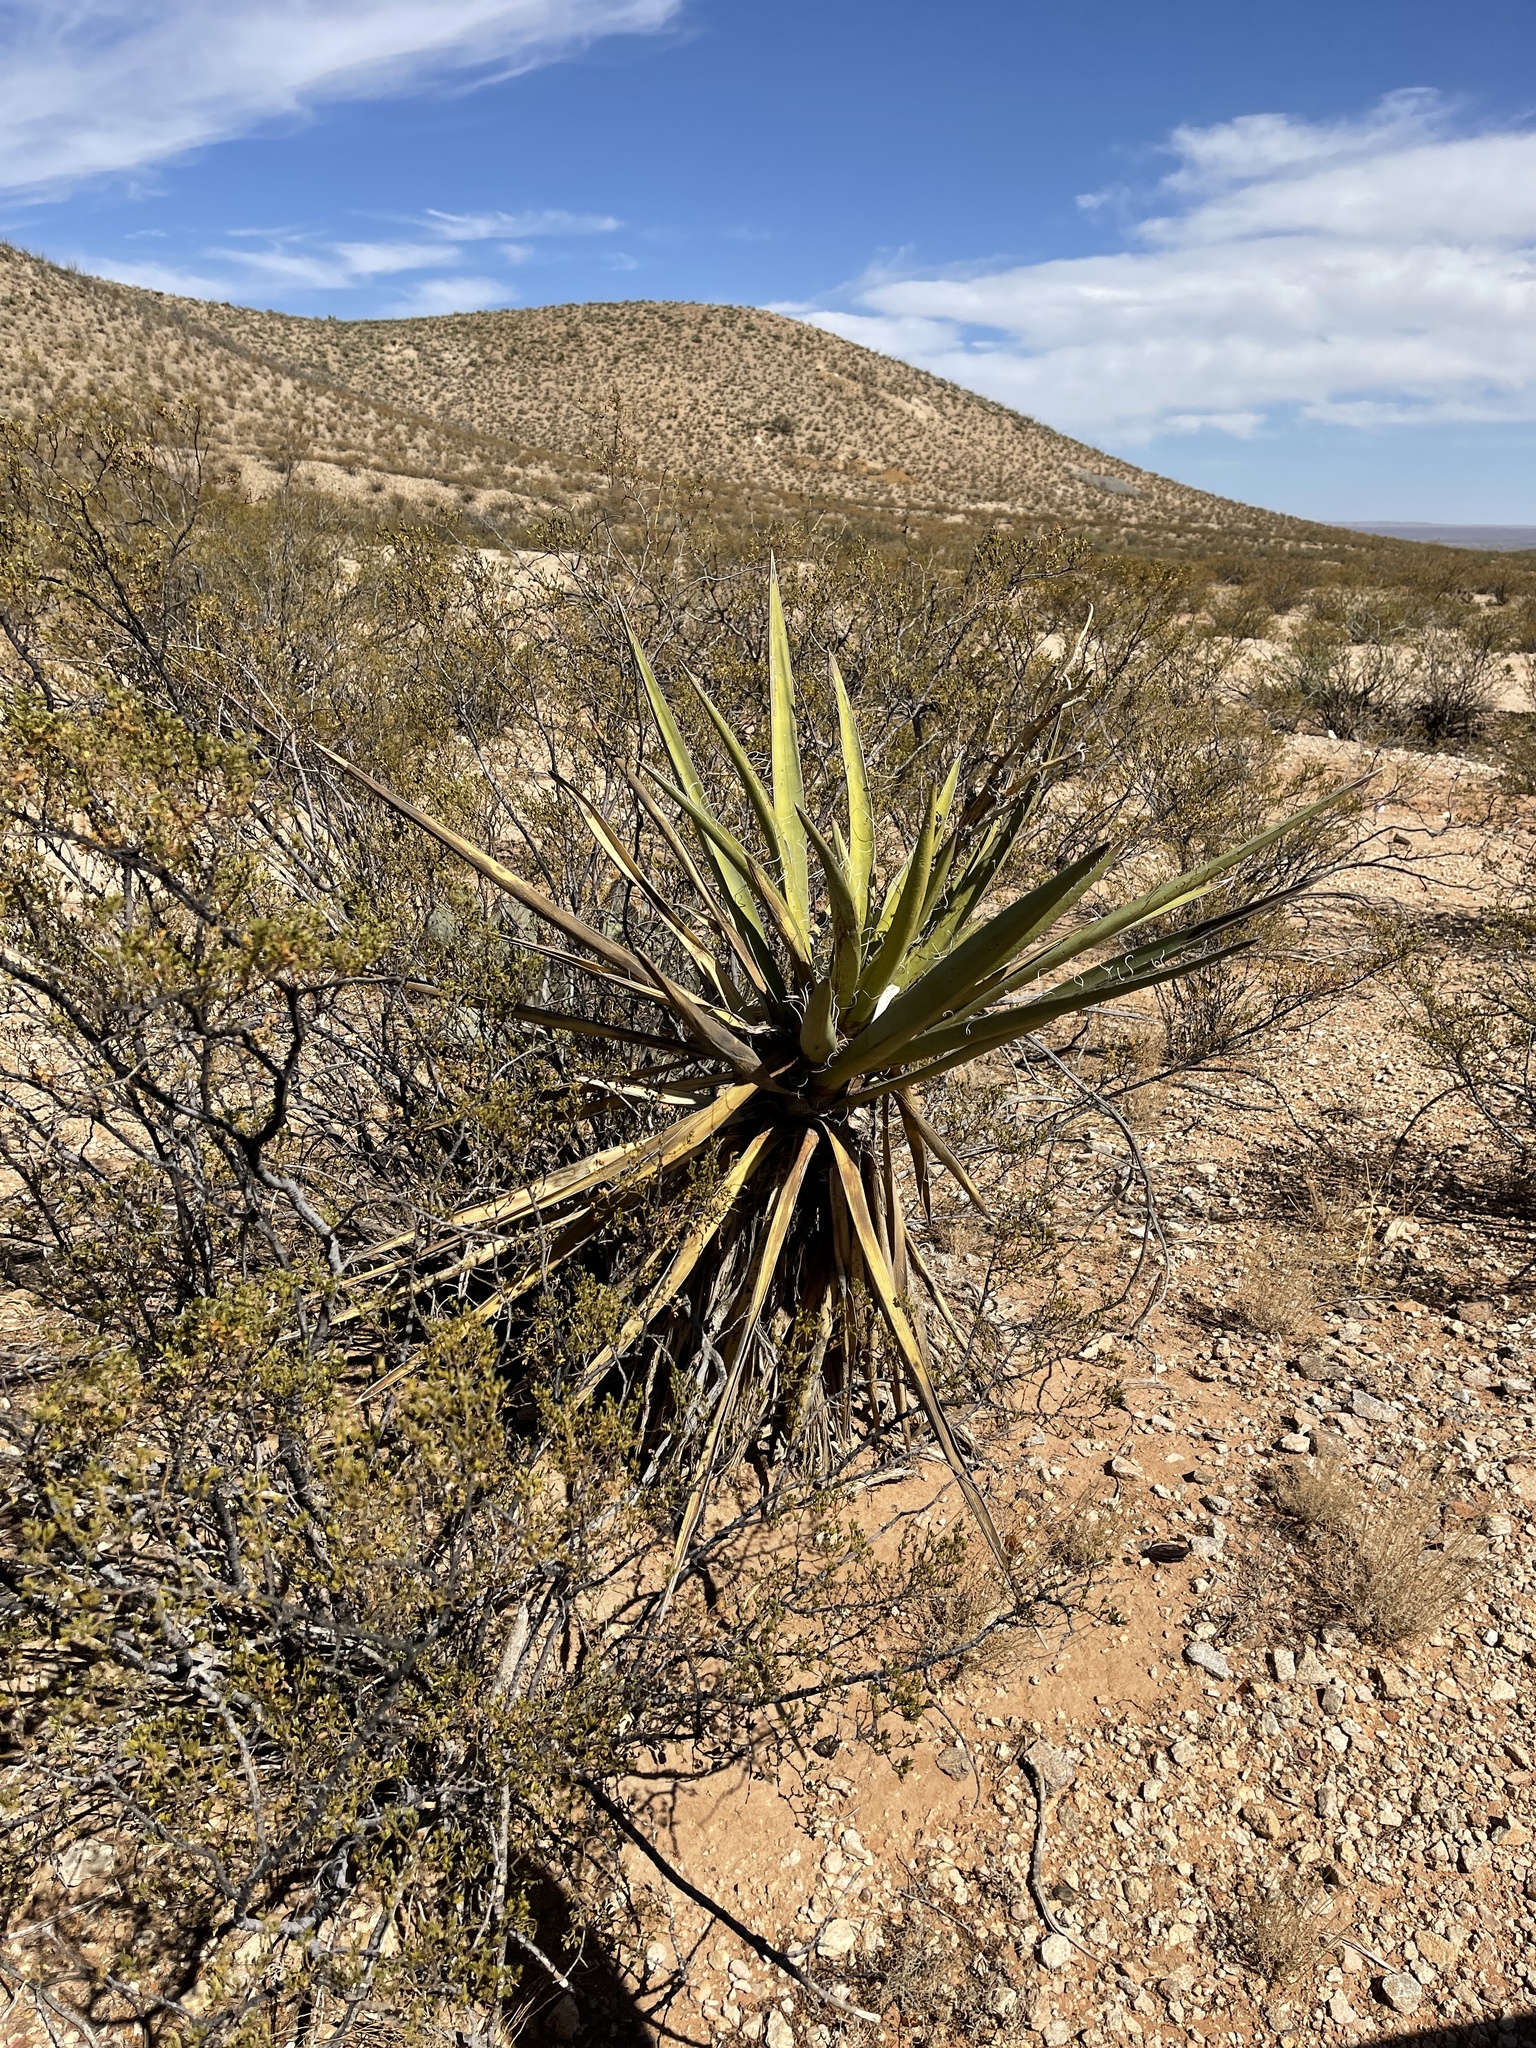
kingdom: Plantae
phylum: Tracheophyta
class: Liliopsida
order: Asparagales
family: Asparagaceae
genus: Yucca
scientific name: Yucca baccata
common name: Banana yucca
